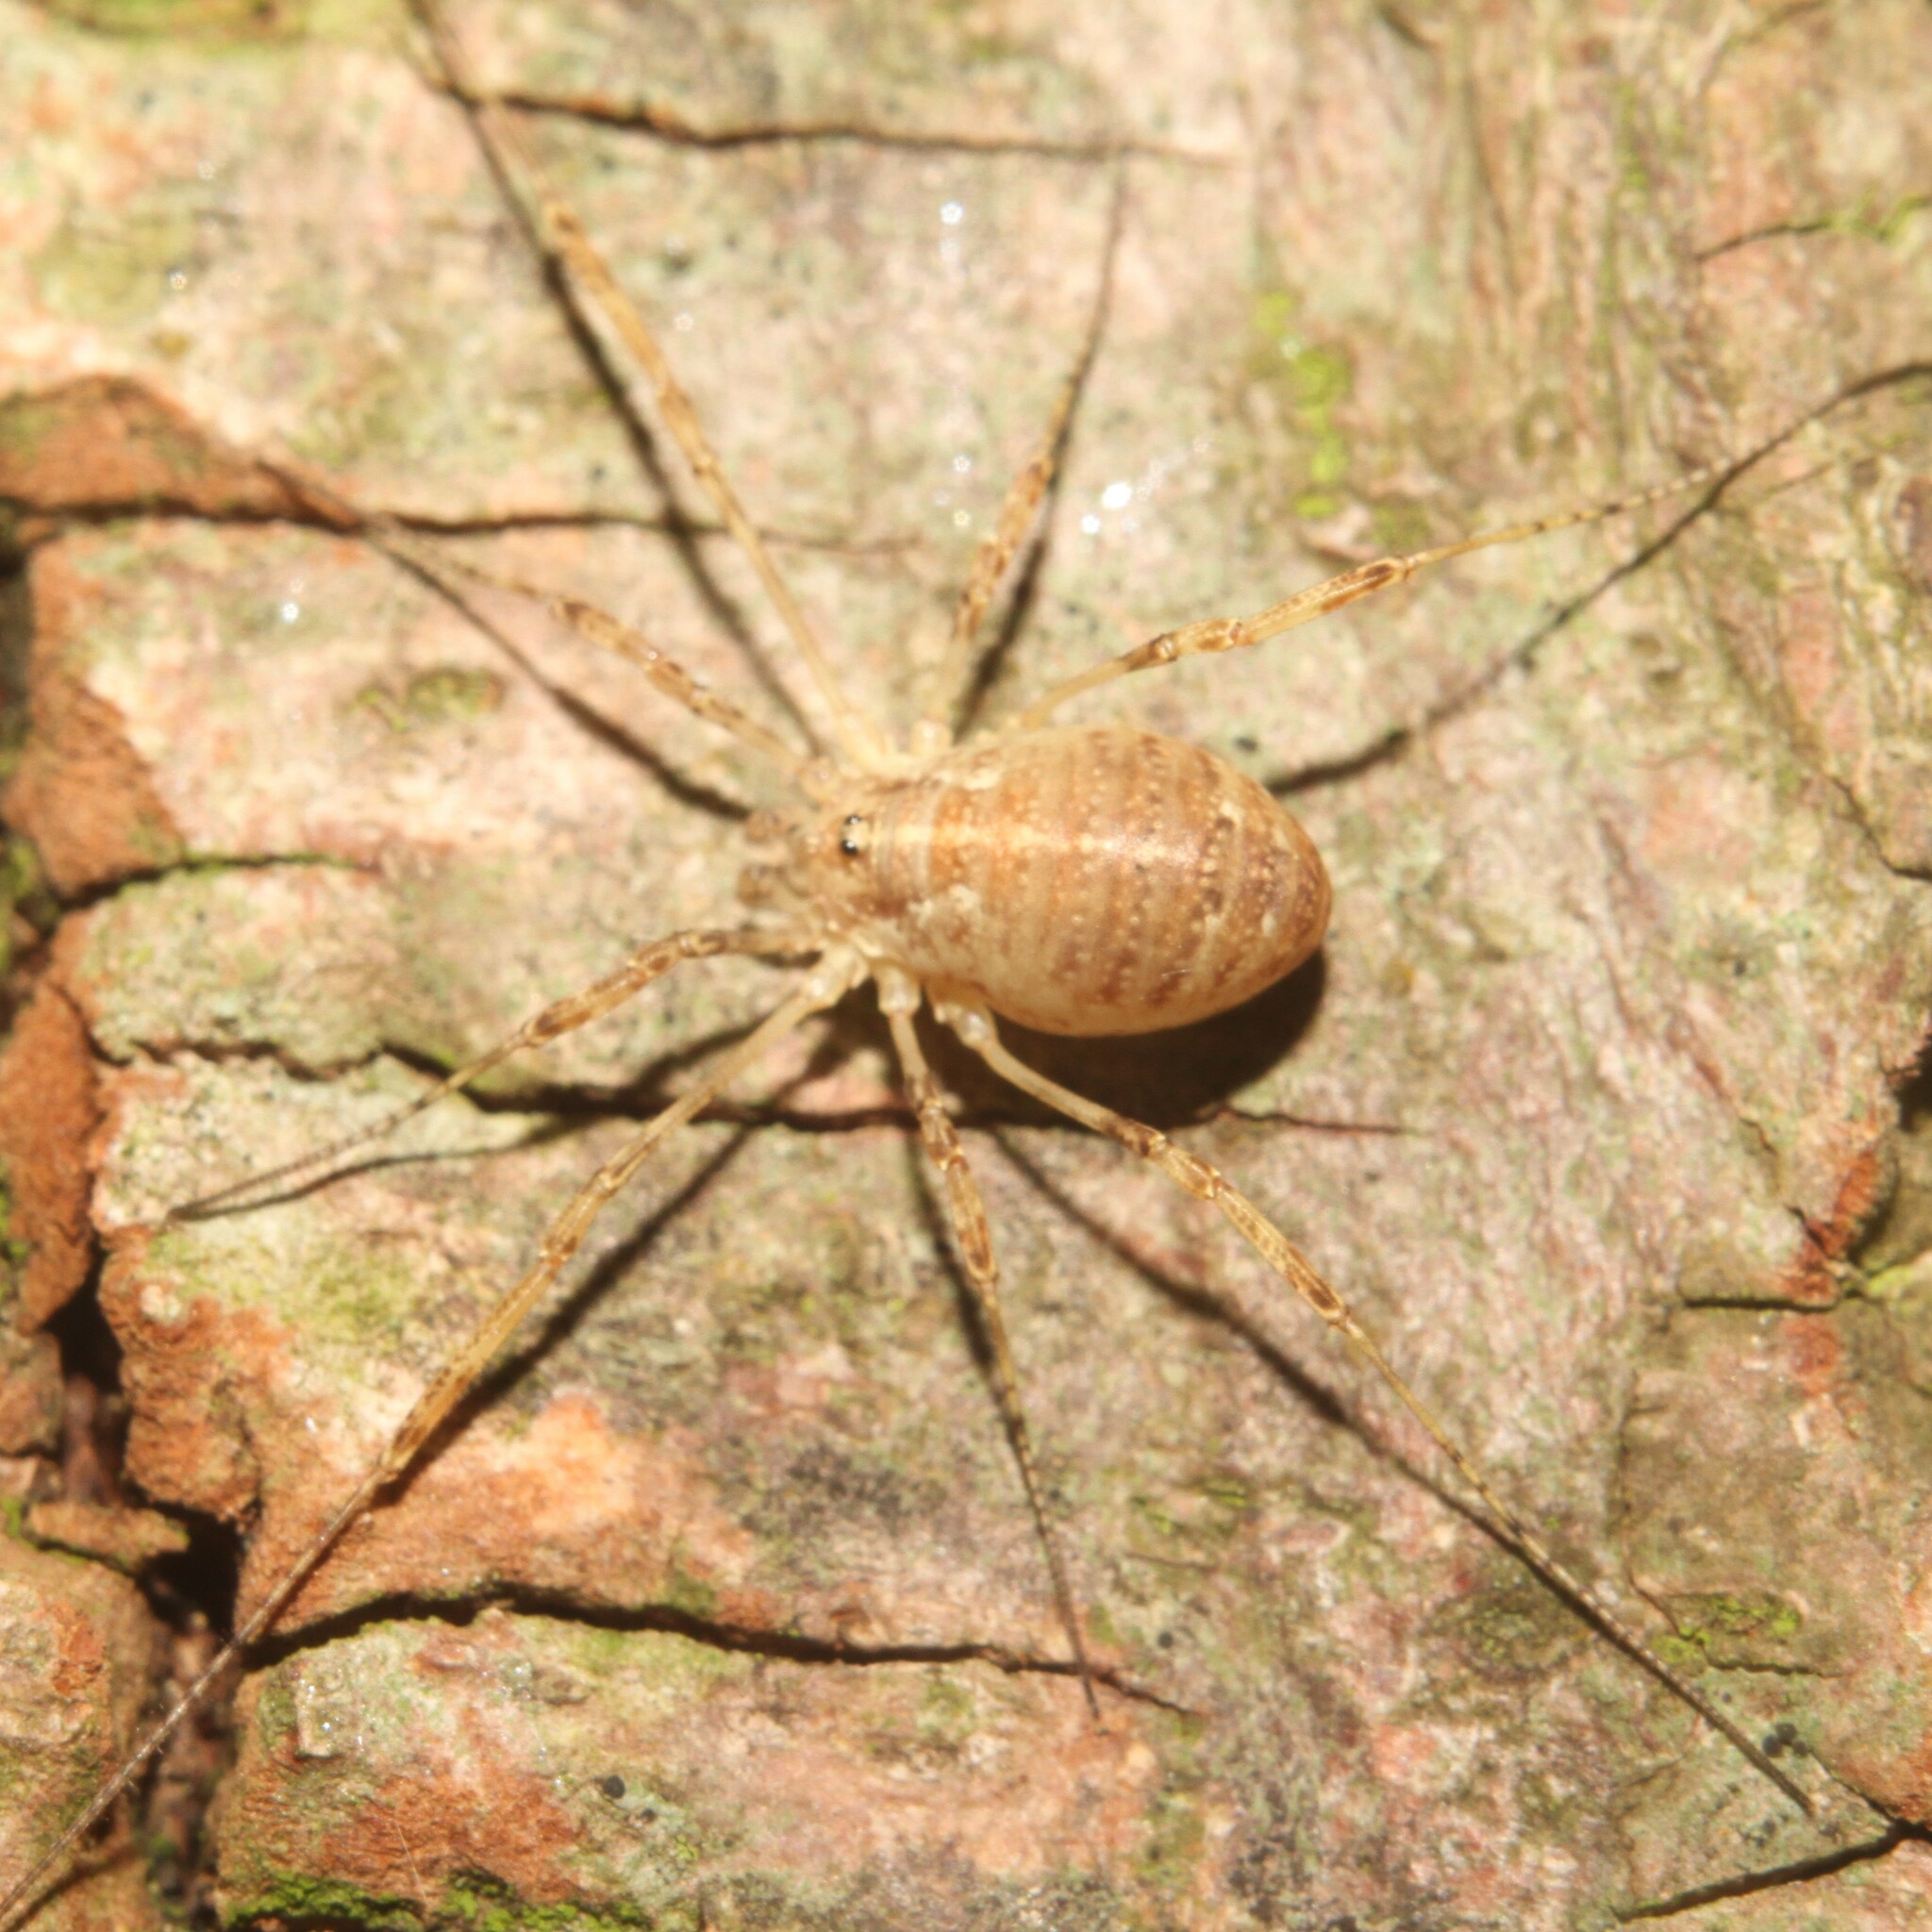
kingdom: Animalia
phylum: Arthropoda
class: Arachnida
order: Opiliones
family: Phalangiidae
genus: Paroligolophus
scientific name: Paroligolophus agrestis
